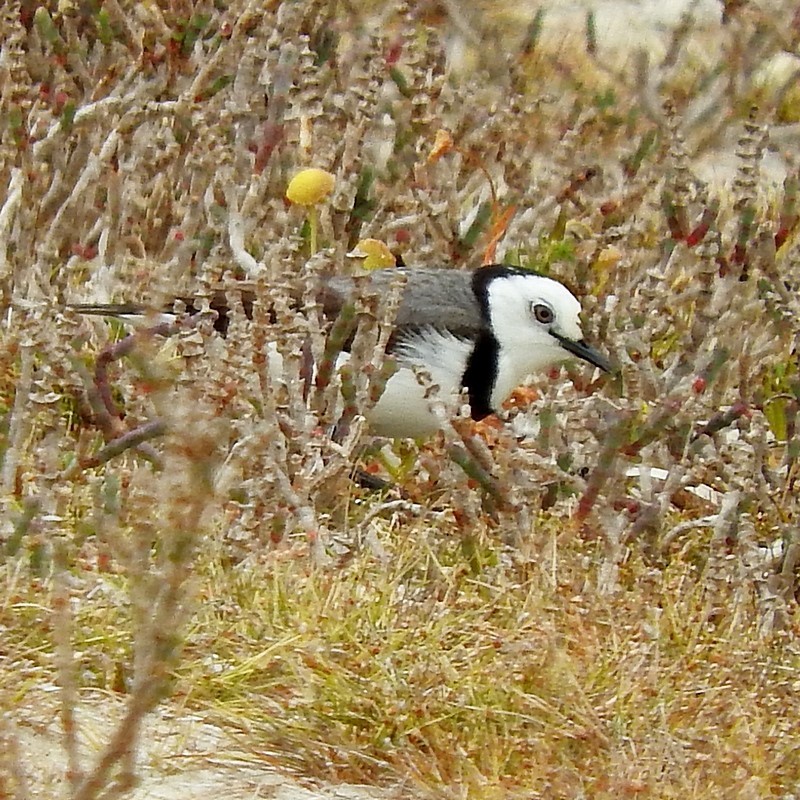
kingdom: Animalia
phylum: Chordata
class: Aves
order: Passeriformes
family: Meliphagidae
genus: Epthianura
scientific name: Epthianura albifrons
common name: White-fronted chat
